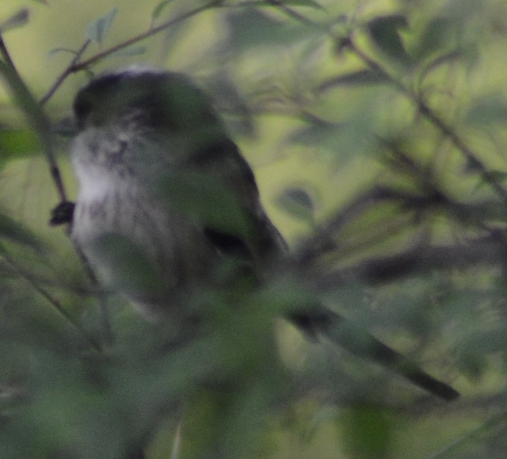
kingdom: Animalia
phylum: Chordata
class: Aves
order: Passeriformes
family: Aegithalidae
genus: Aegithalos
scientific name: Aegithalos caudatus
